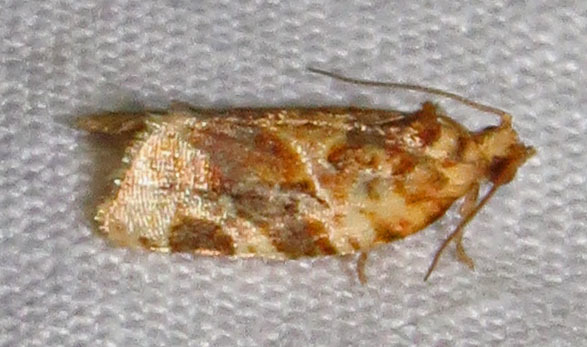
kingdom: Animalia
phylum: Arthropoda
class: Insecta
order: Lepidoptera
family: Tortricidae
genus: Argyrotaenia
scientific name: Argyrotaenia velutinana
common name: Red-banded leafroller moth
